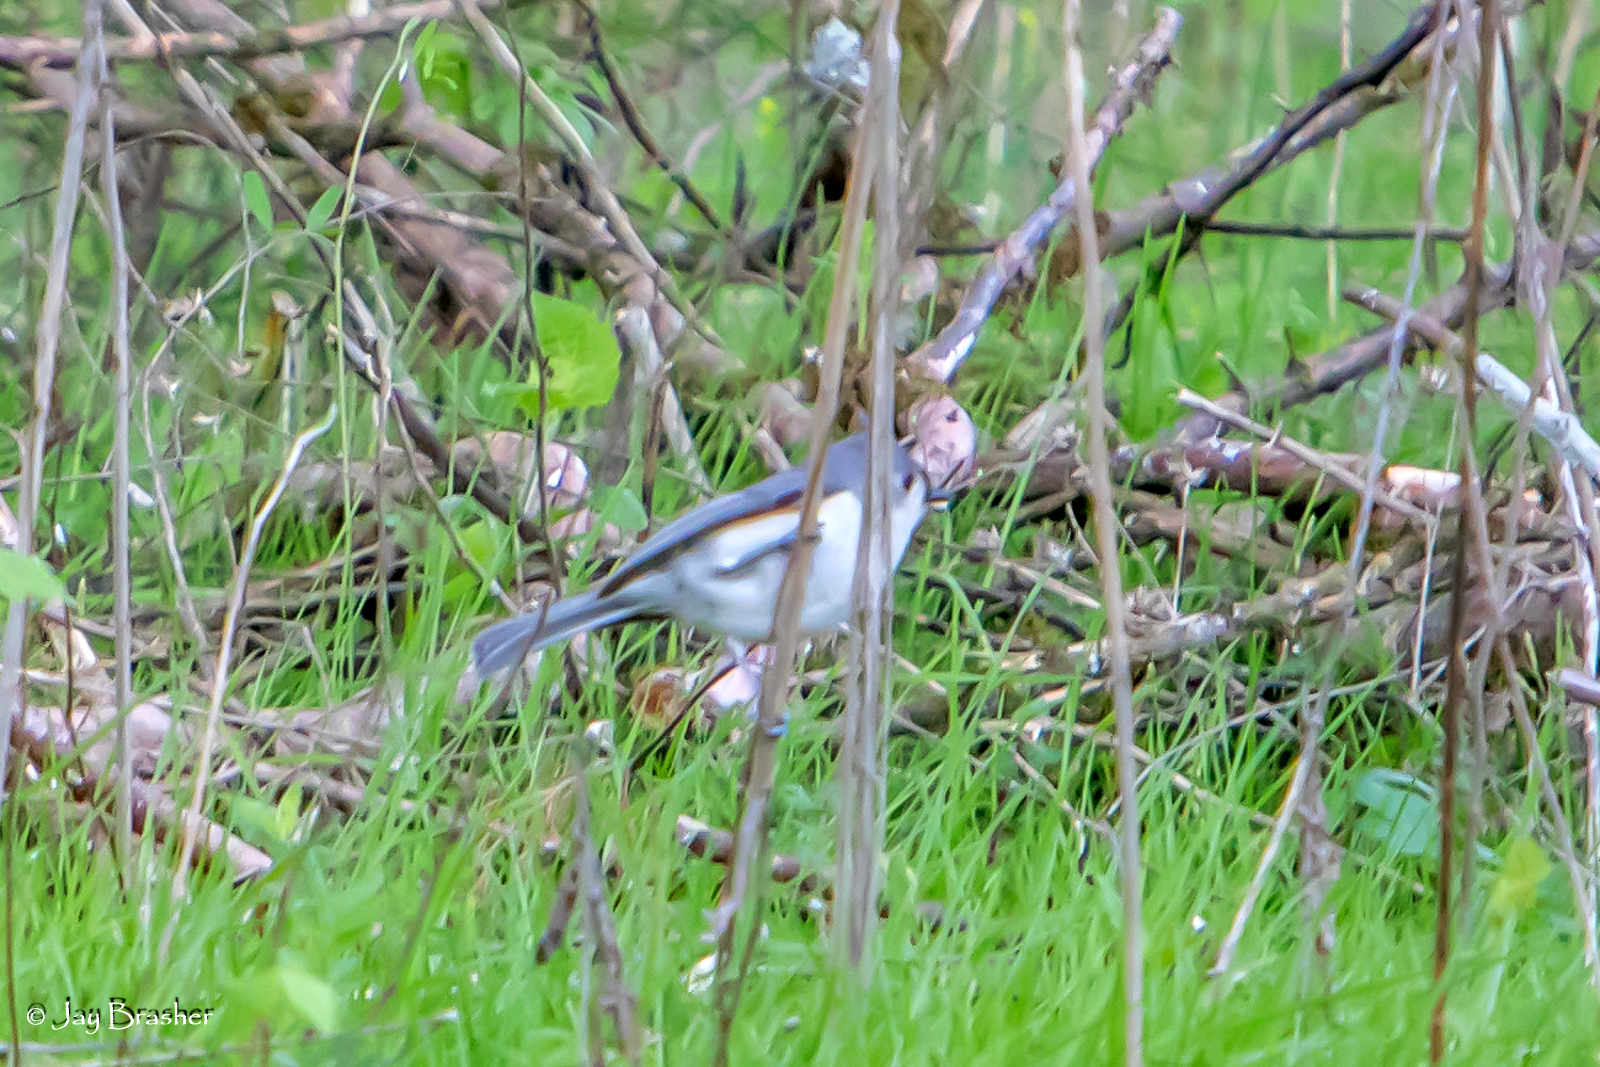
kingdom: Animalia
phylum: Chordata
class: Aves
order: Passeriformes
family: Paridae
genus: Baeolophus
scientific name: Baeolophus bicolor
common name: Tufted titmouse
